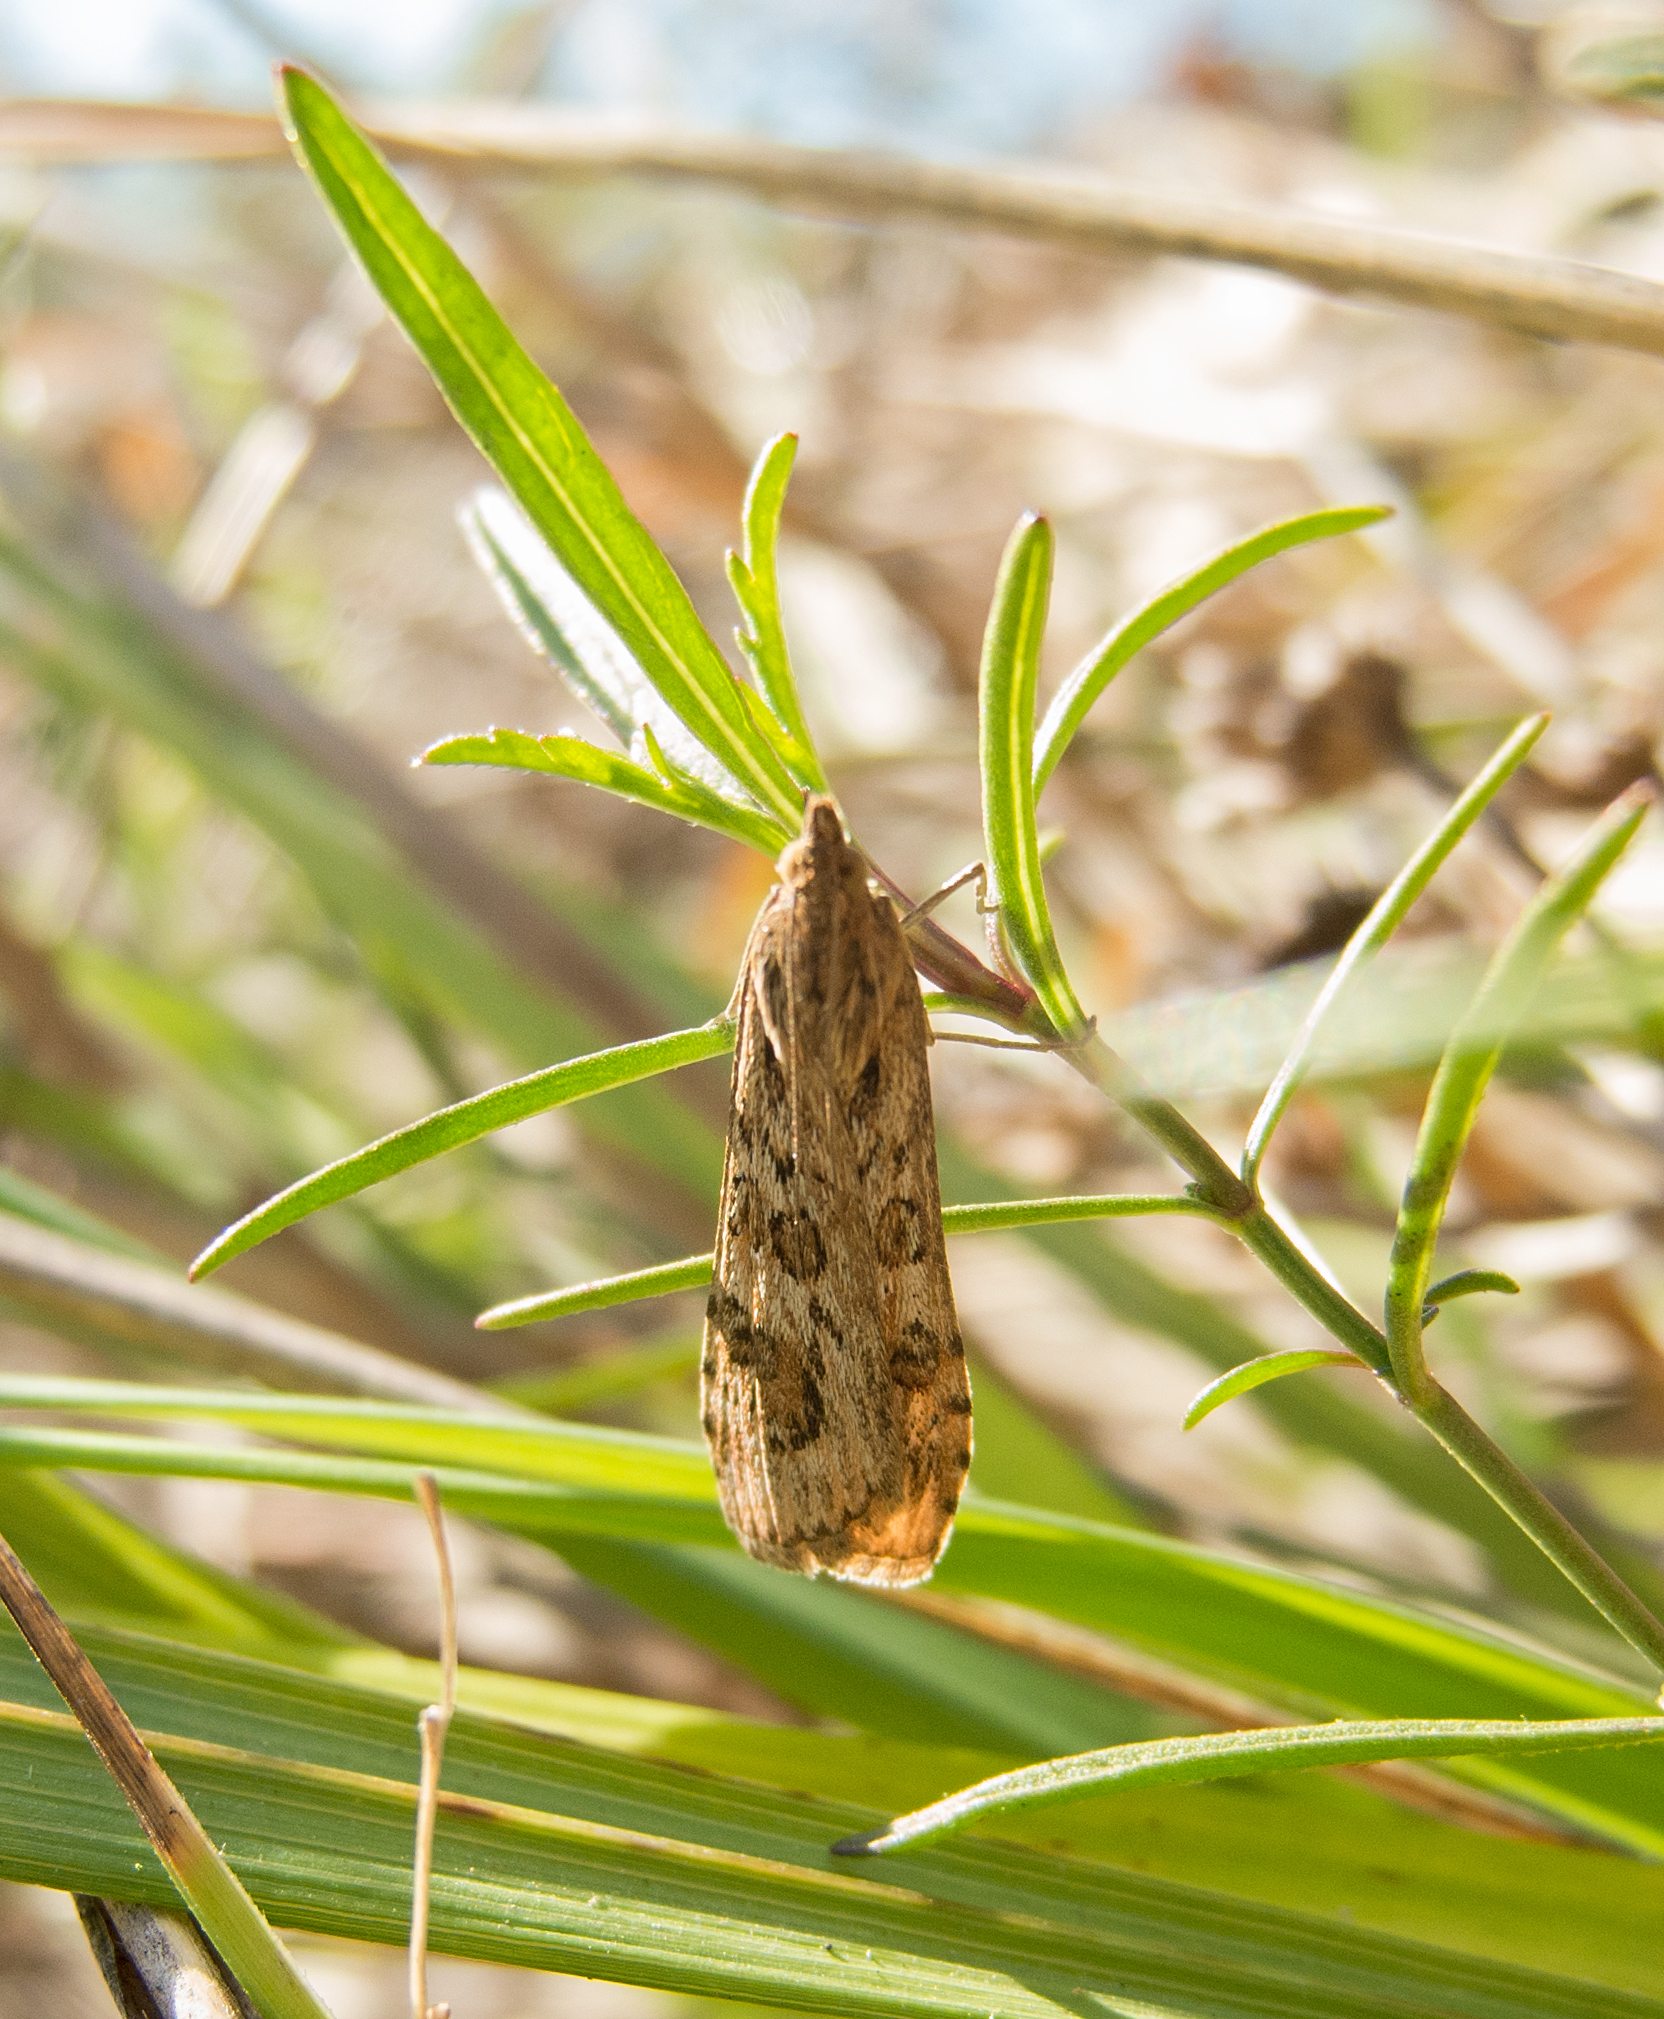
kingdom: Animalia
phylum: Arthropoda
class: Insecta
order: Lepidoptera
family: Crambidae
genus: Nomophila
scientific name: Nomophila noctuella
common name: Rush veneer
